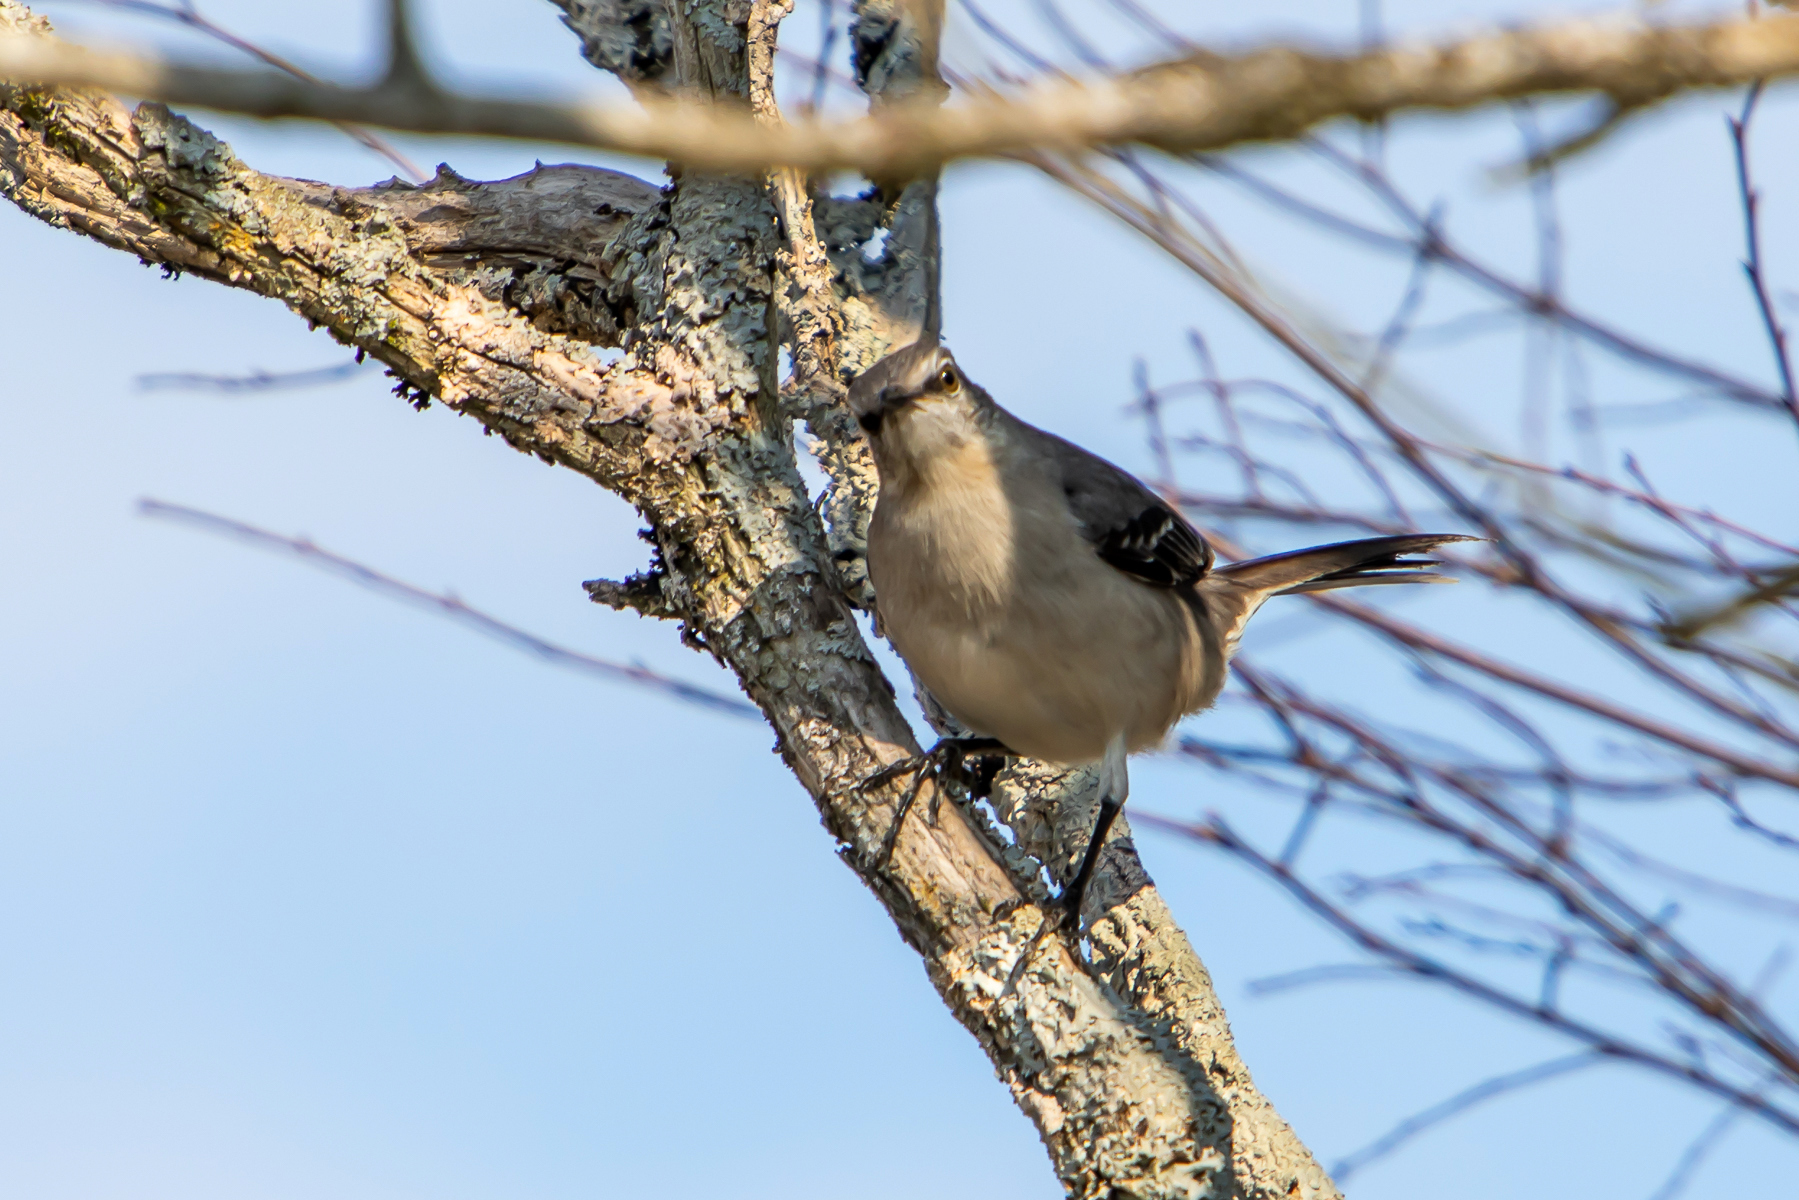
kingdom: Animalia
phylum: Chordata
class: Aves
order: Passeriformes
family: Mimidae
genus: Mimus
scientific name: Mimus polyglottos
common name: Northern mockingbird
